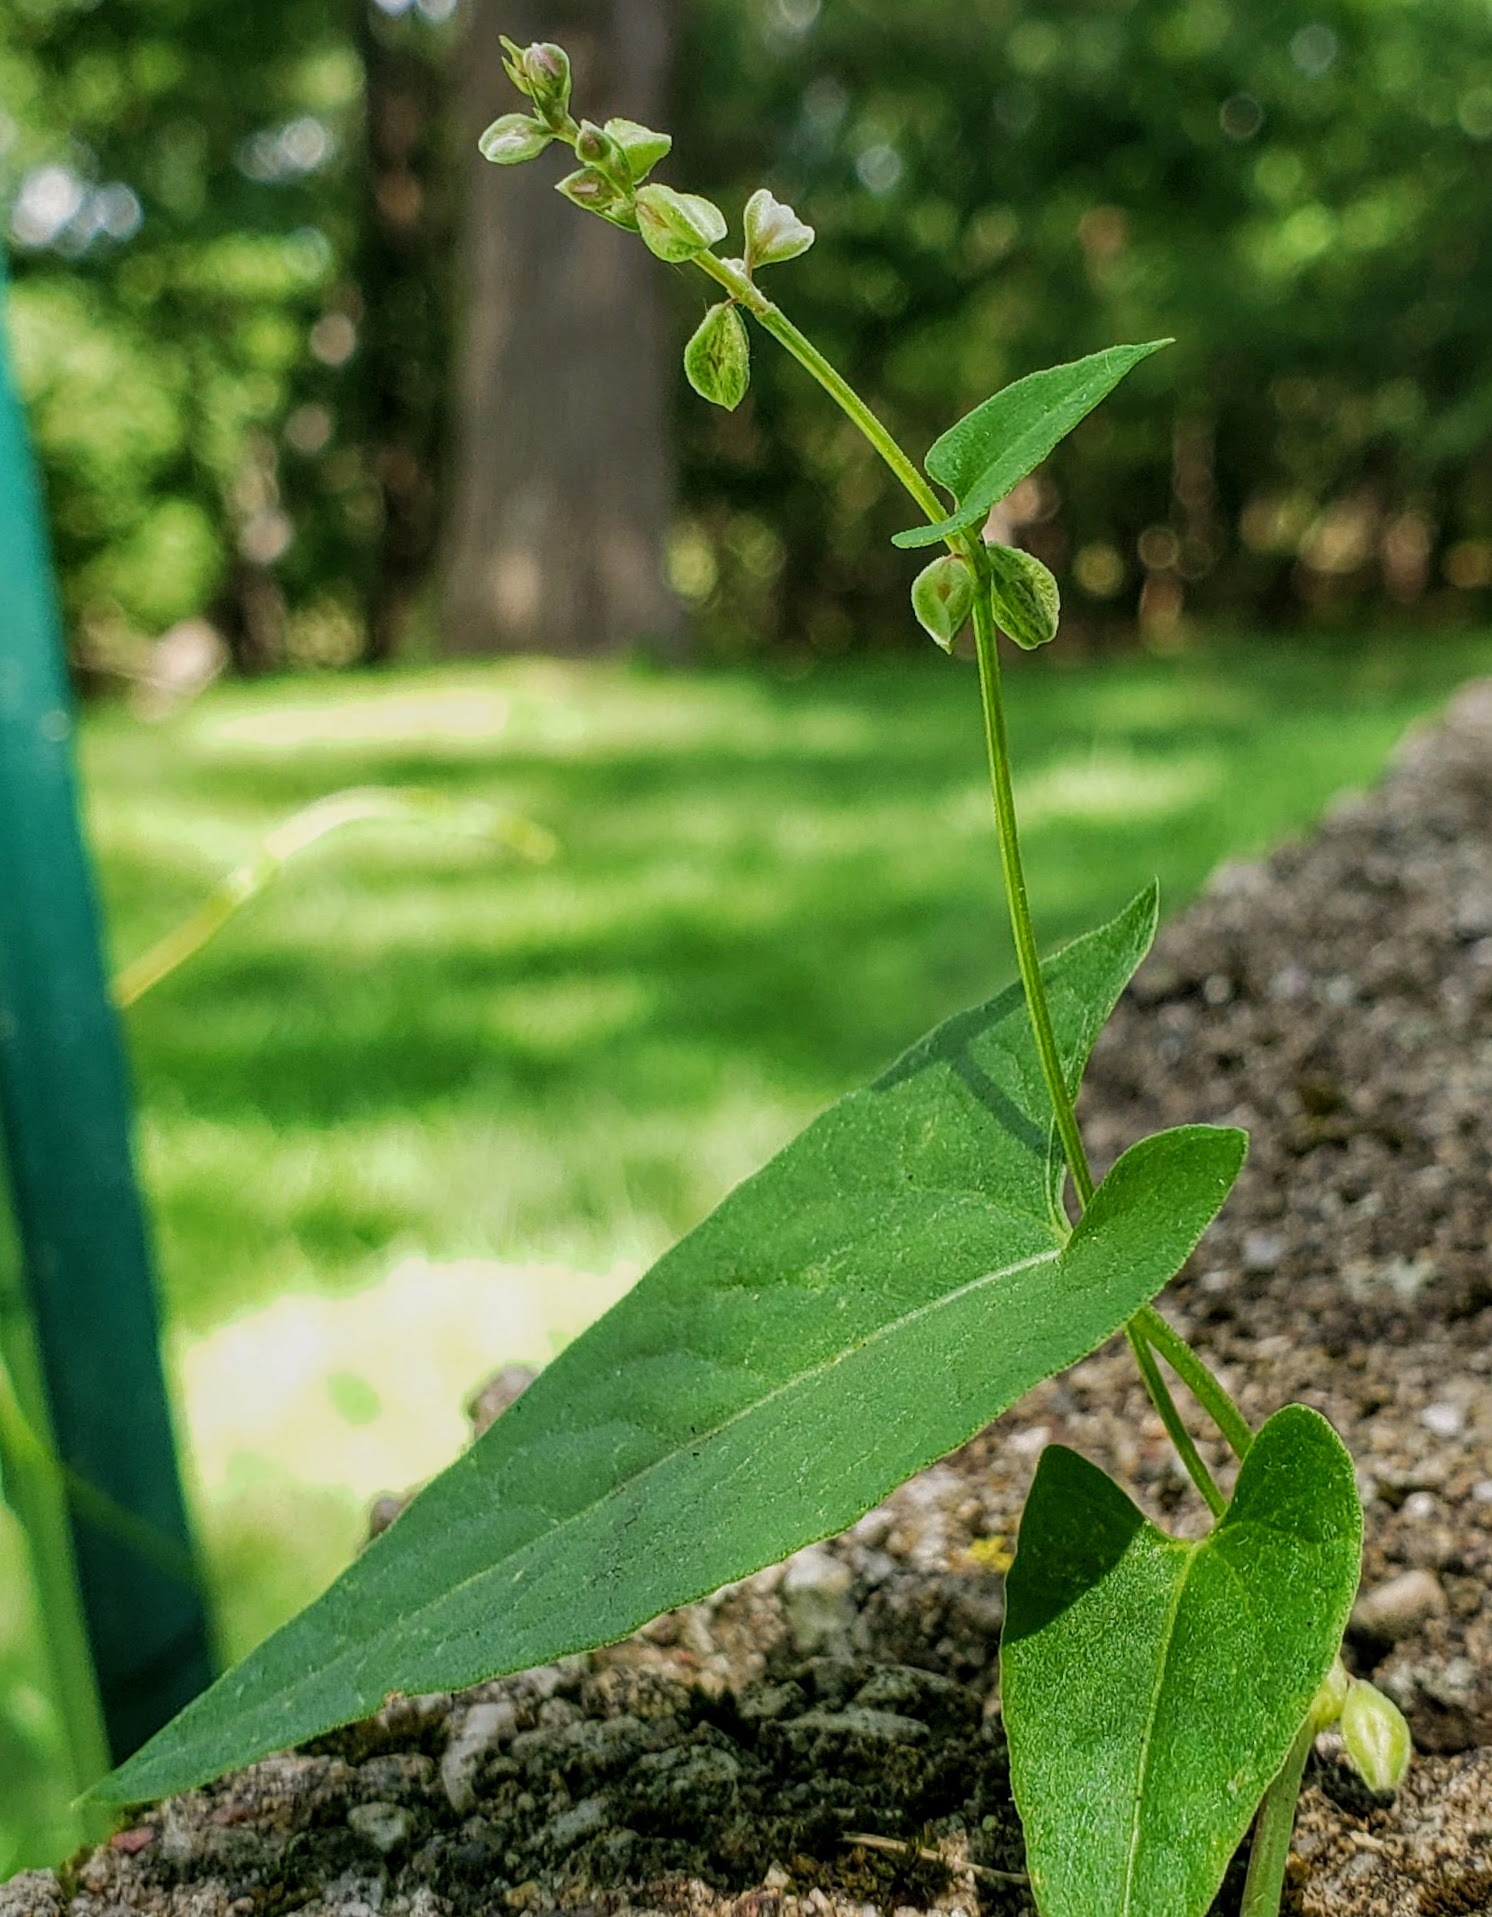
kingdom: Plantae
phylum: Tracheophyta
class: Magnoliopsida
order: Caryophyllales
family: Polygonaceae
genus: Fallopia
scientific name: Fallopia convolvulus
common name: Black bindweed
